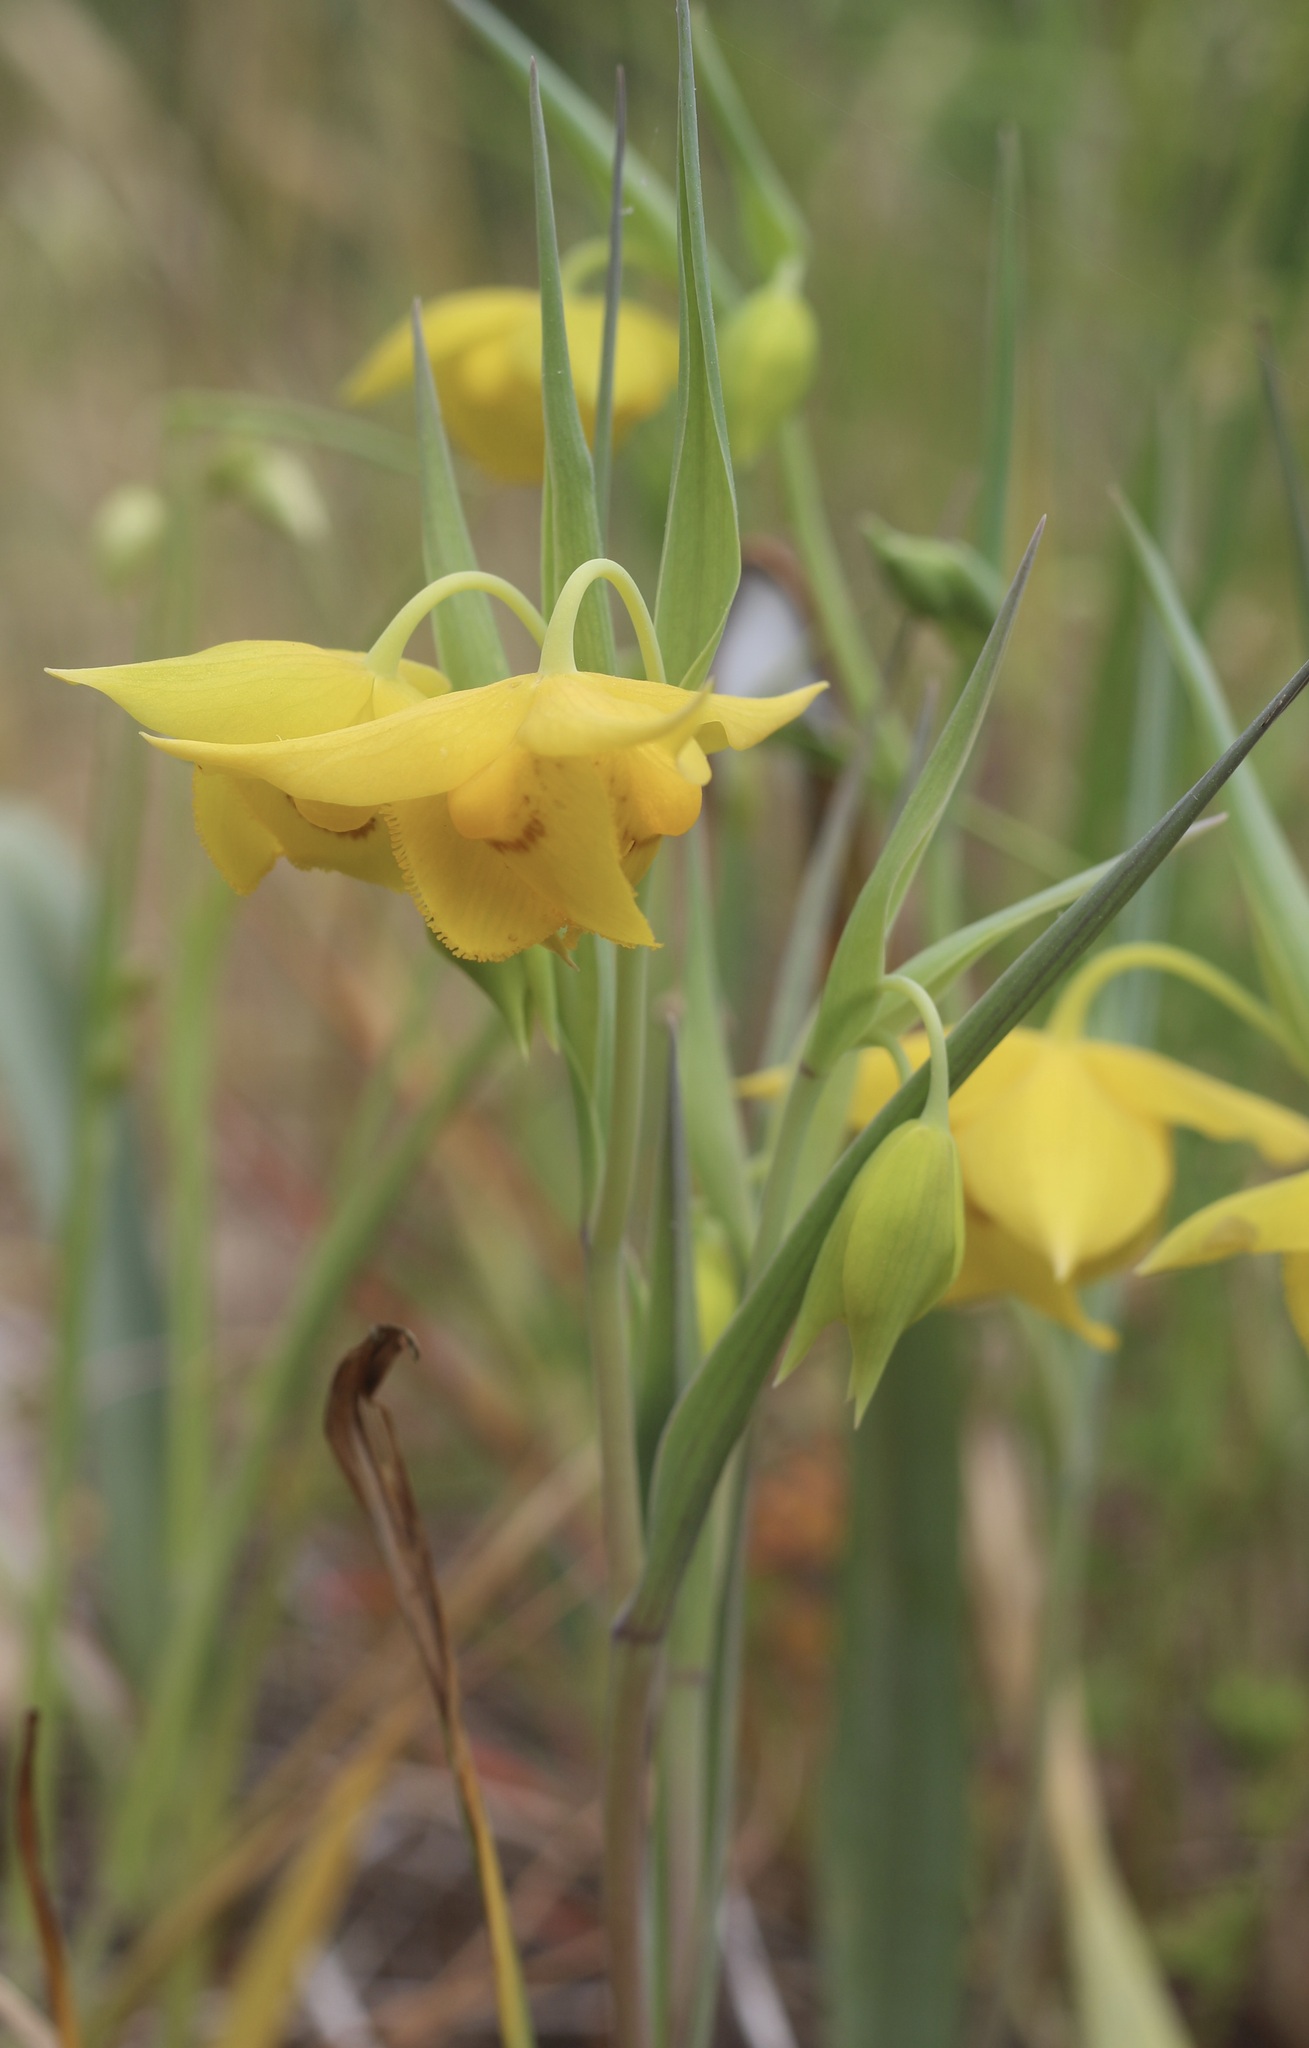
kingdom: Plantae
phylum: Tracheophyta
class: Liliopsida
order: Liliales
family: Liliaceae
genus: Calochortus
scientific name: Calochortus amabilis
